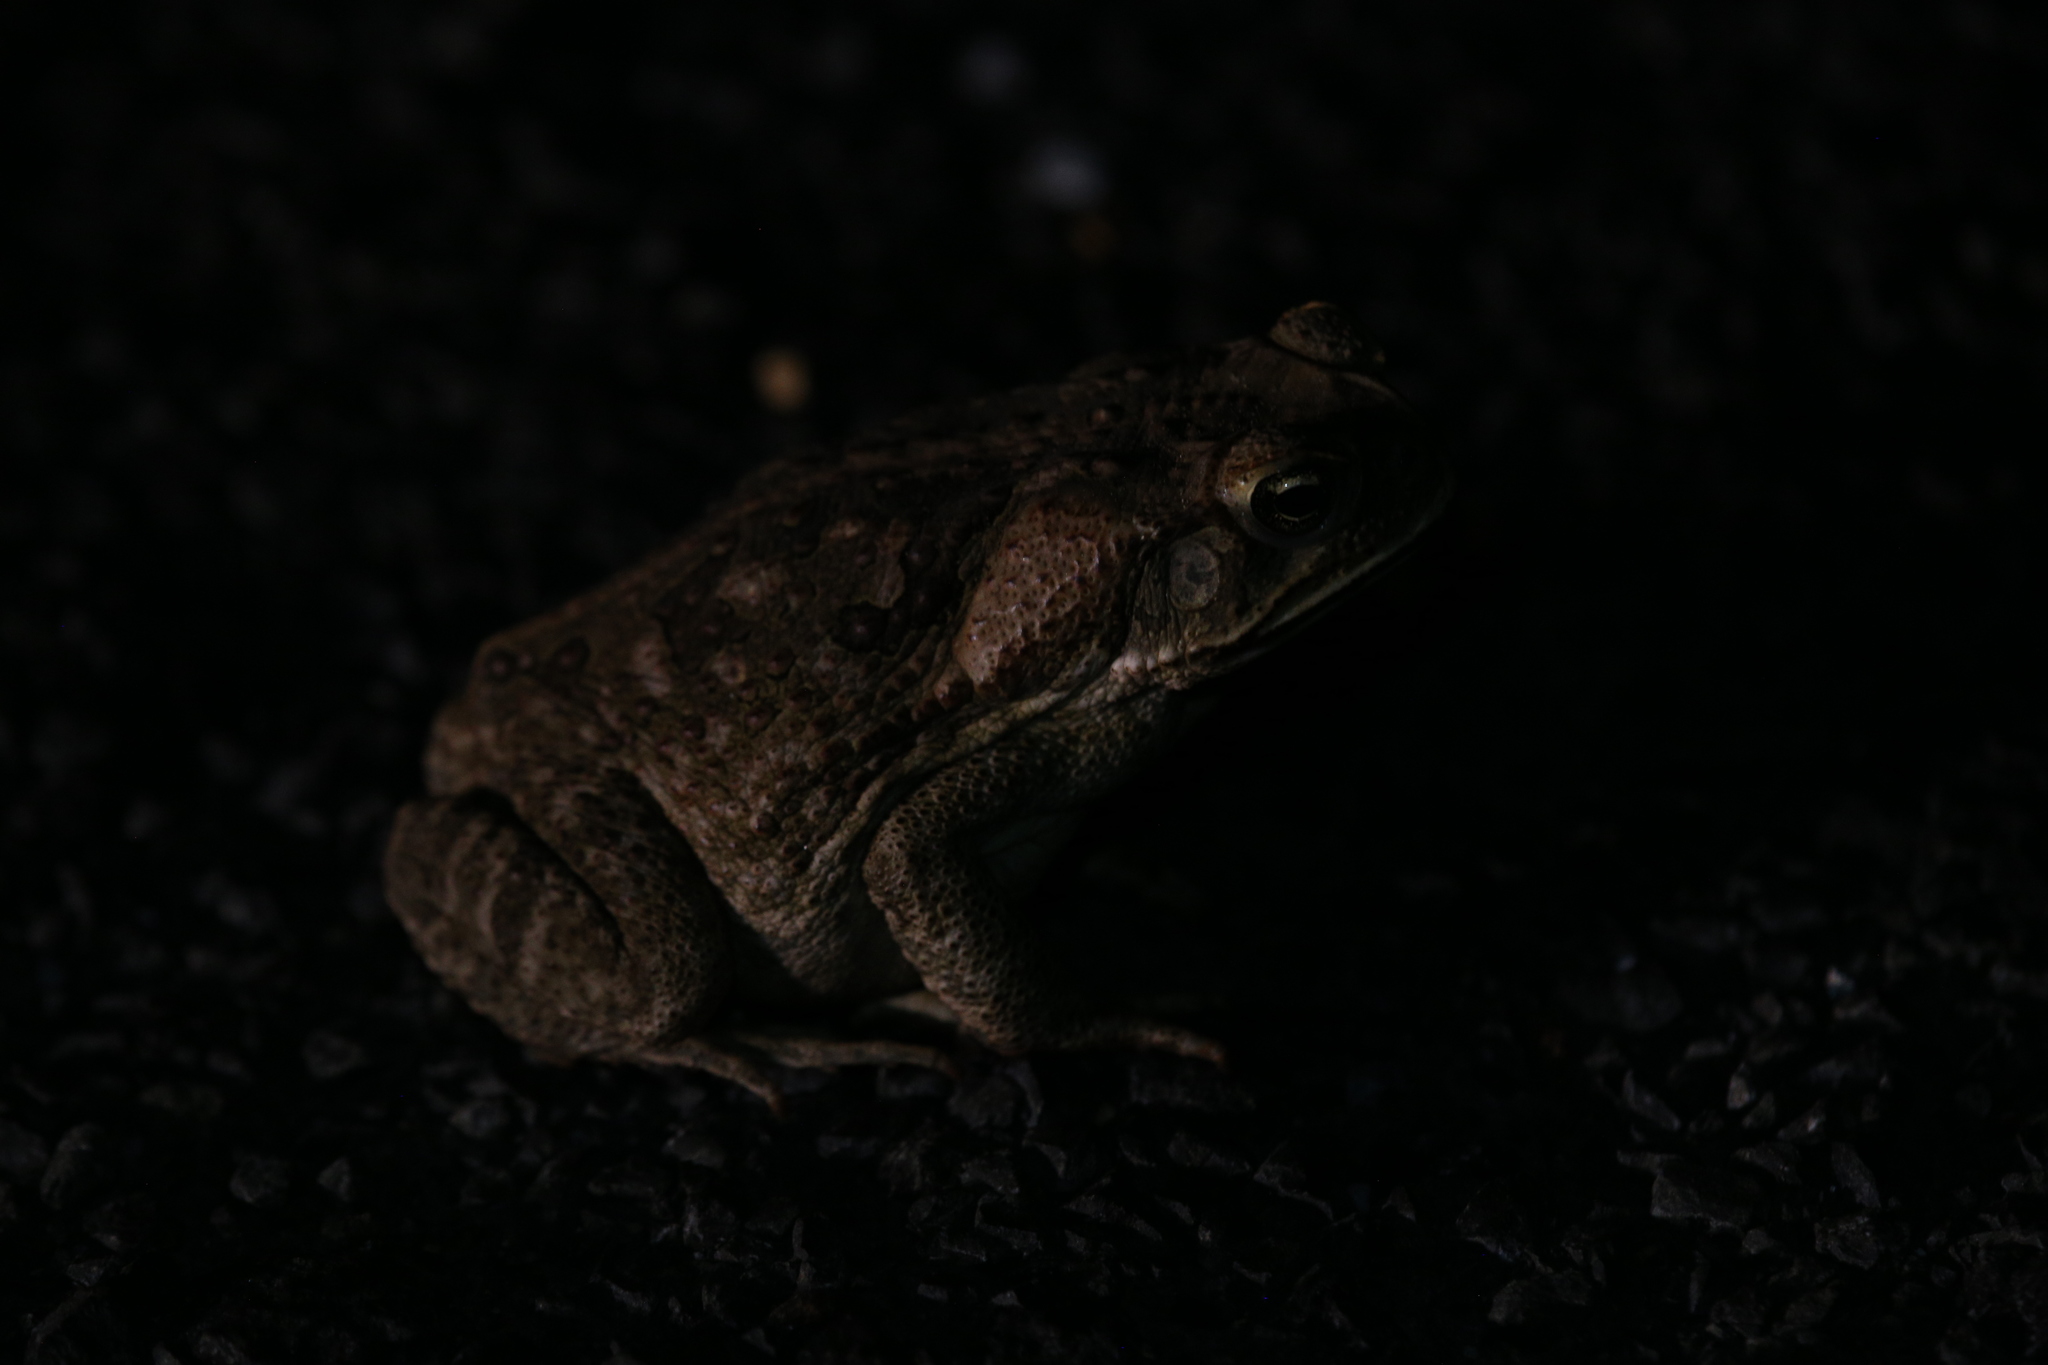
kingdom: Animalia
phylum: Chordata
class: Amphibia
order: Anura
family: Bufonidae
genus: Rhinella
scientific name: Rhinella marina
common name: Cane toad
